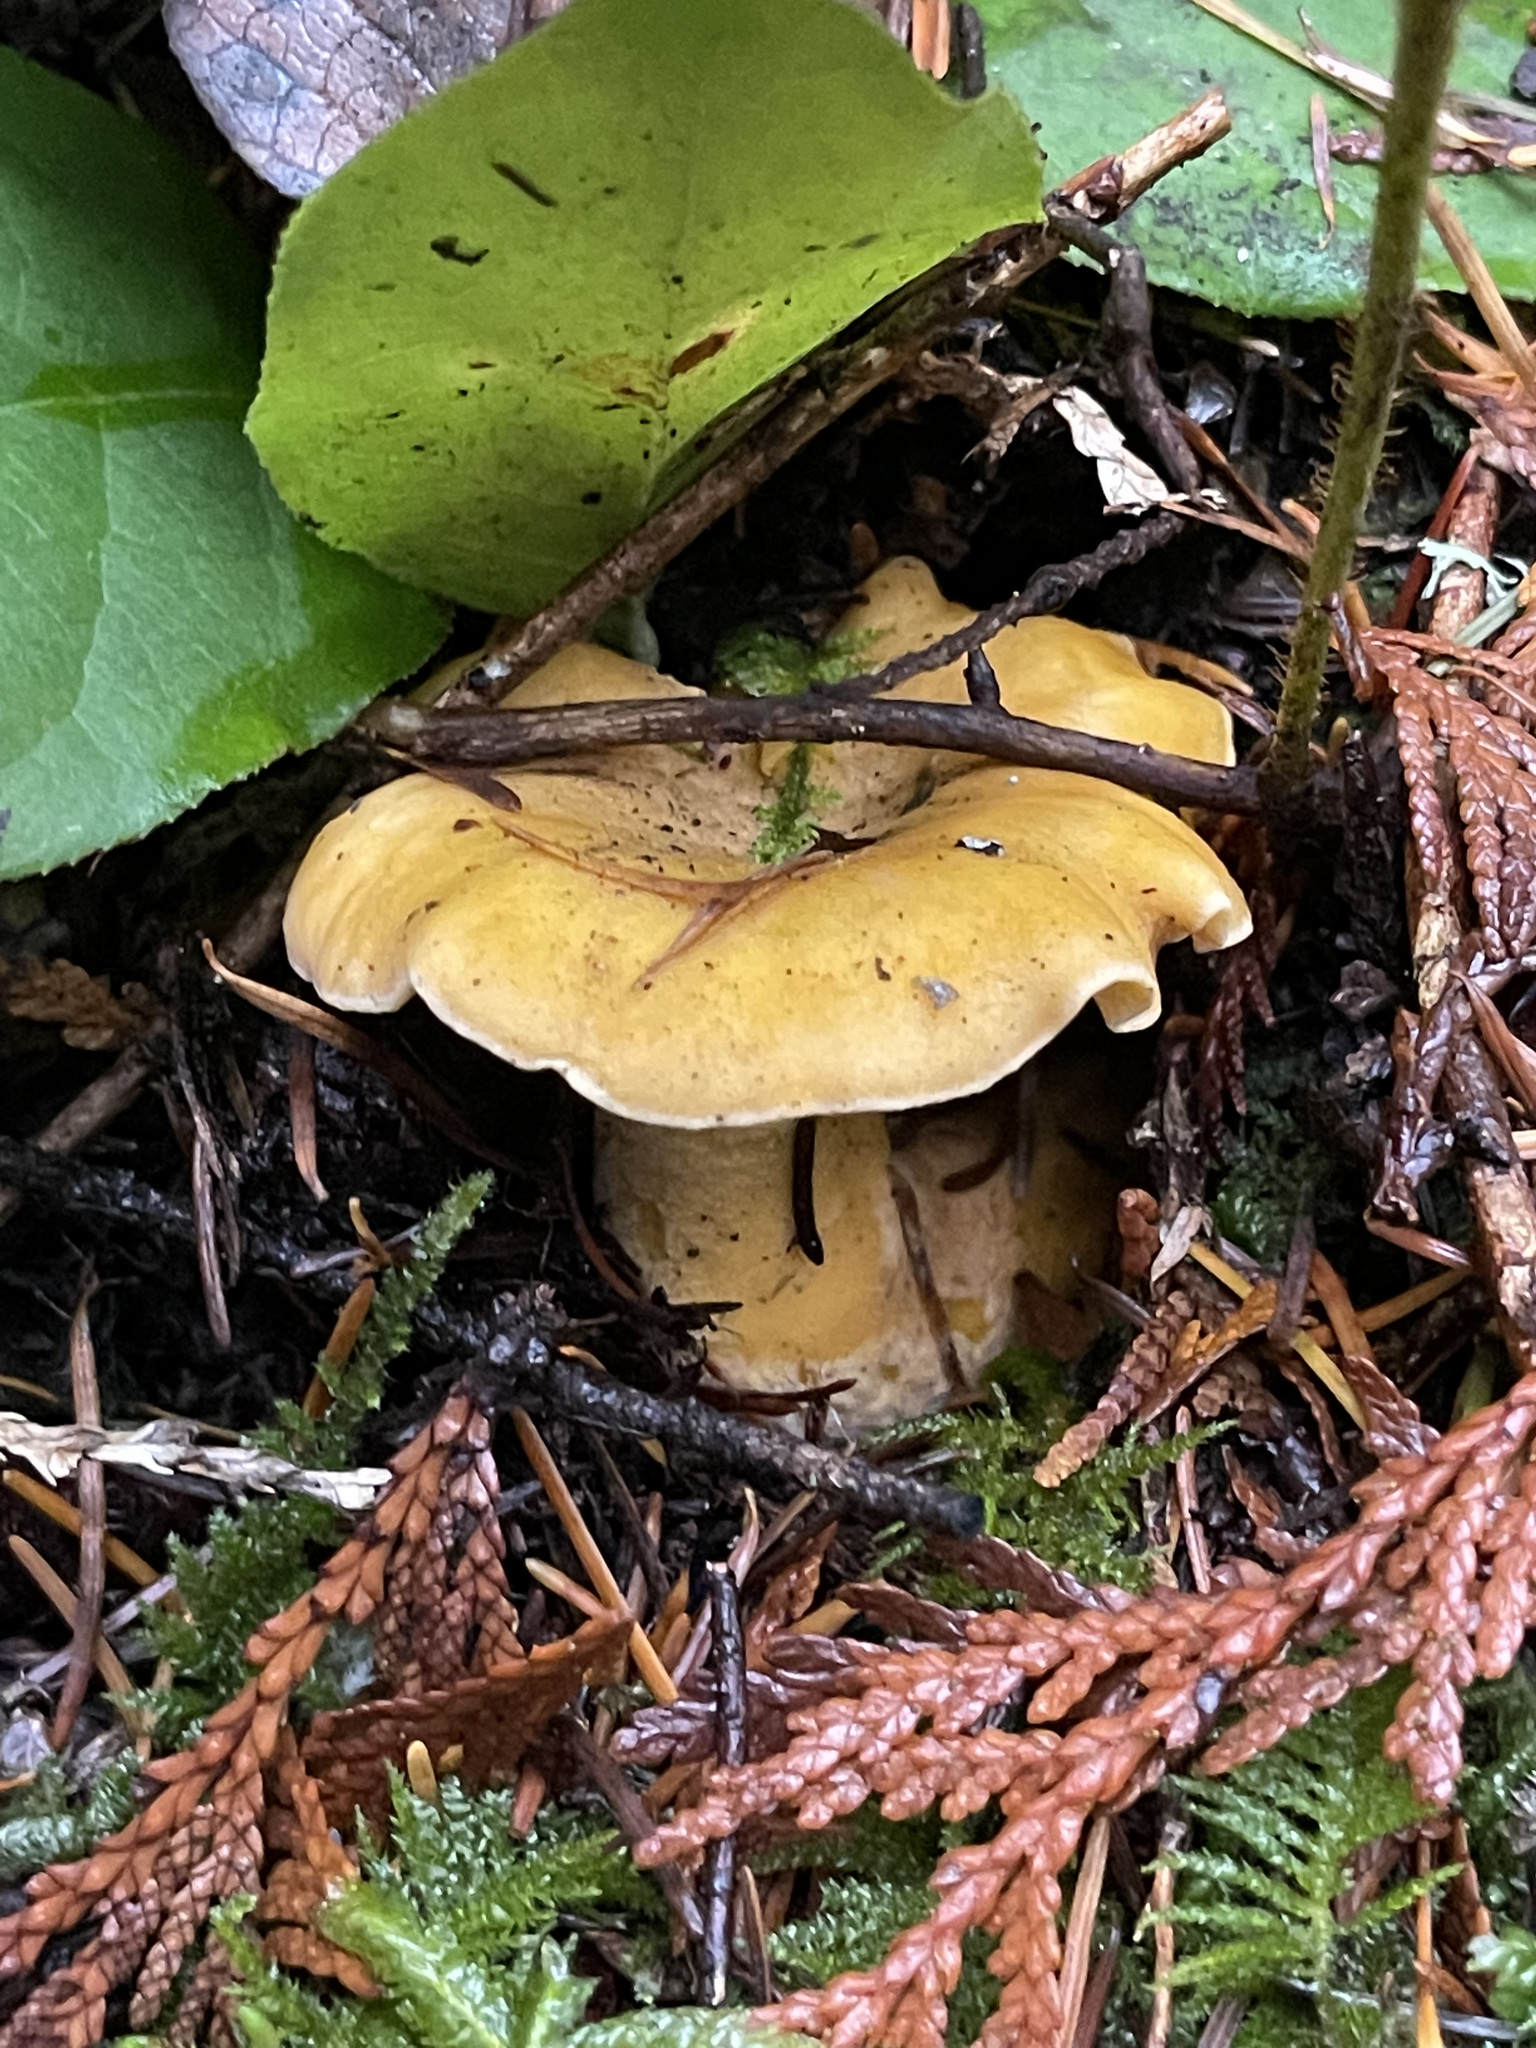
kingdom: Fungi
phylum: Basidiomycota
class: Agaricomycetes
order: Cantharellales
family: Hydnaceae
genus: Cantharellus
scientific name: Cantharellus formosus
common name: Pacific golden chanterelle
